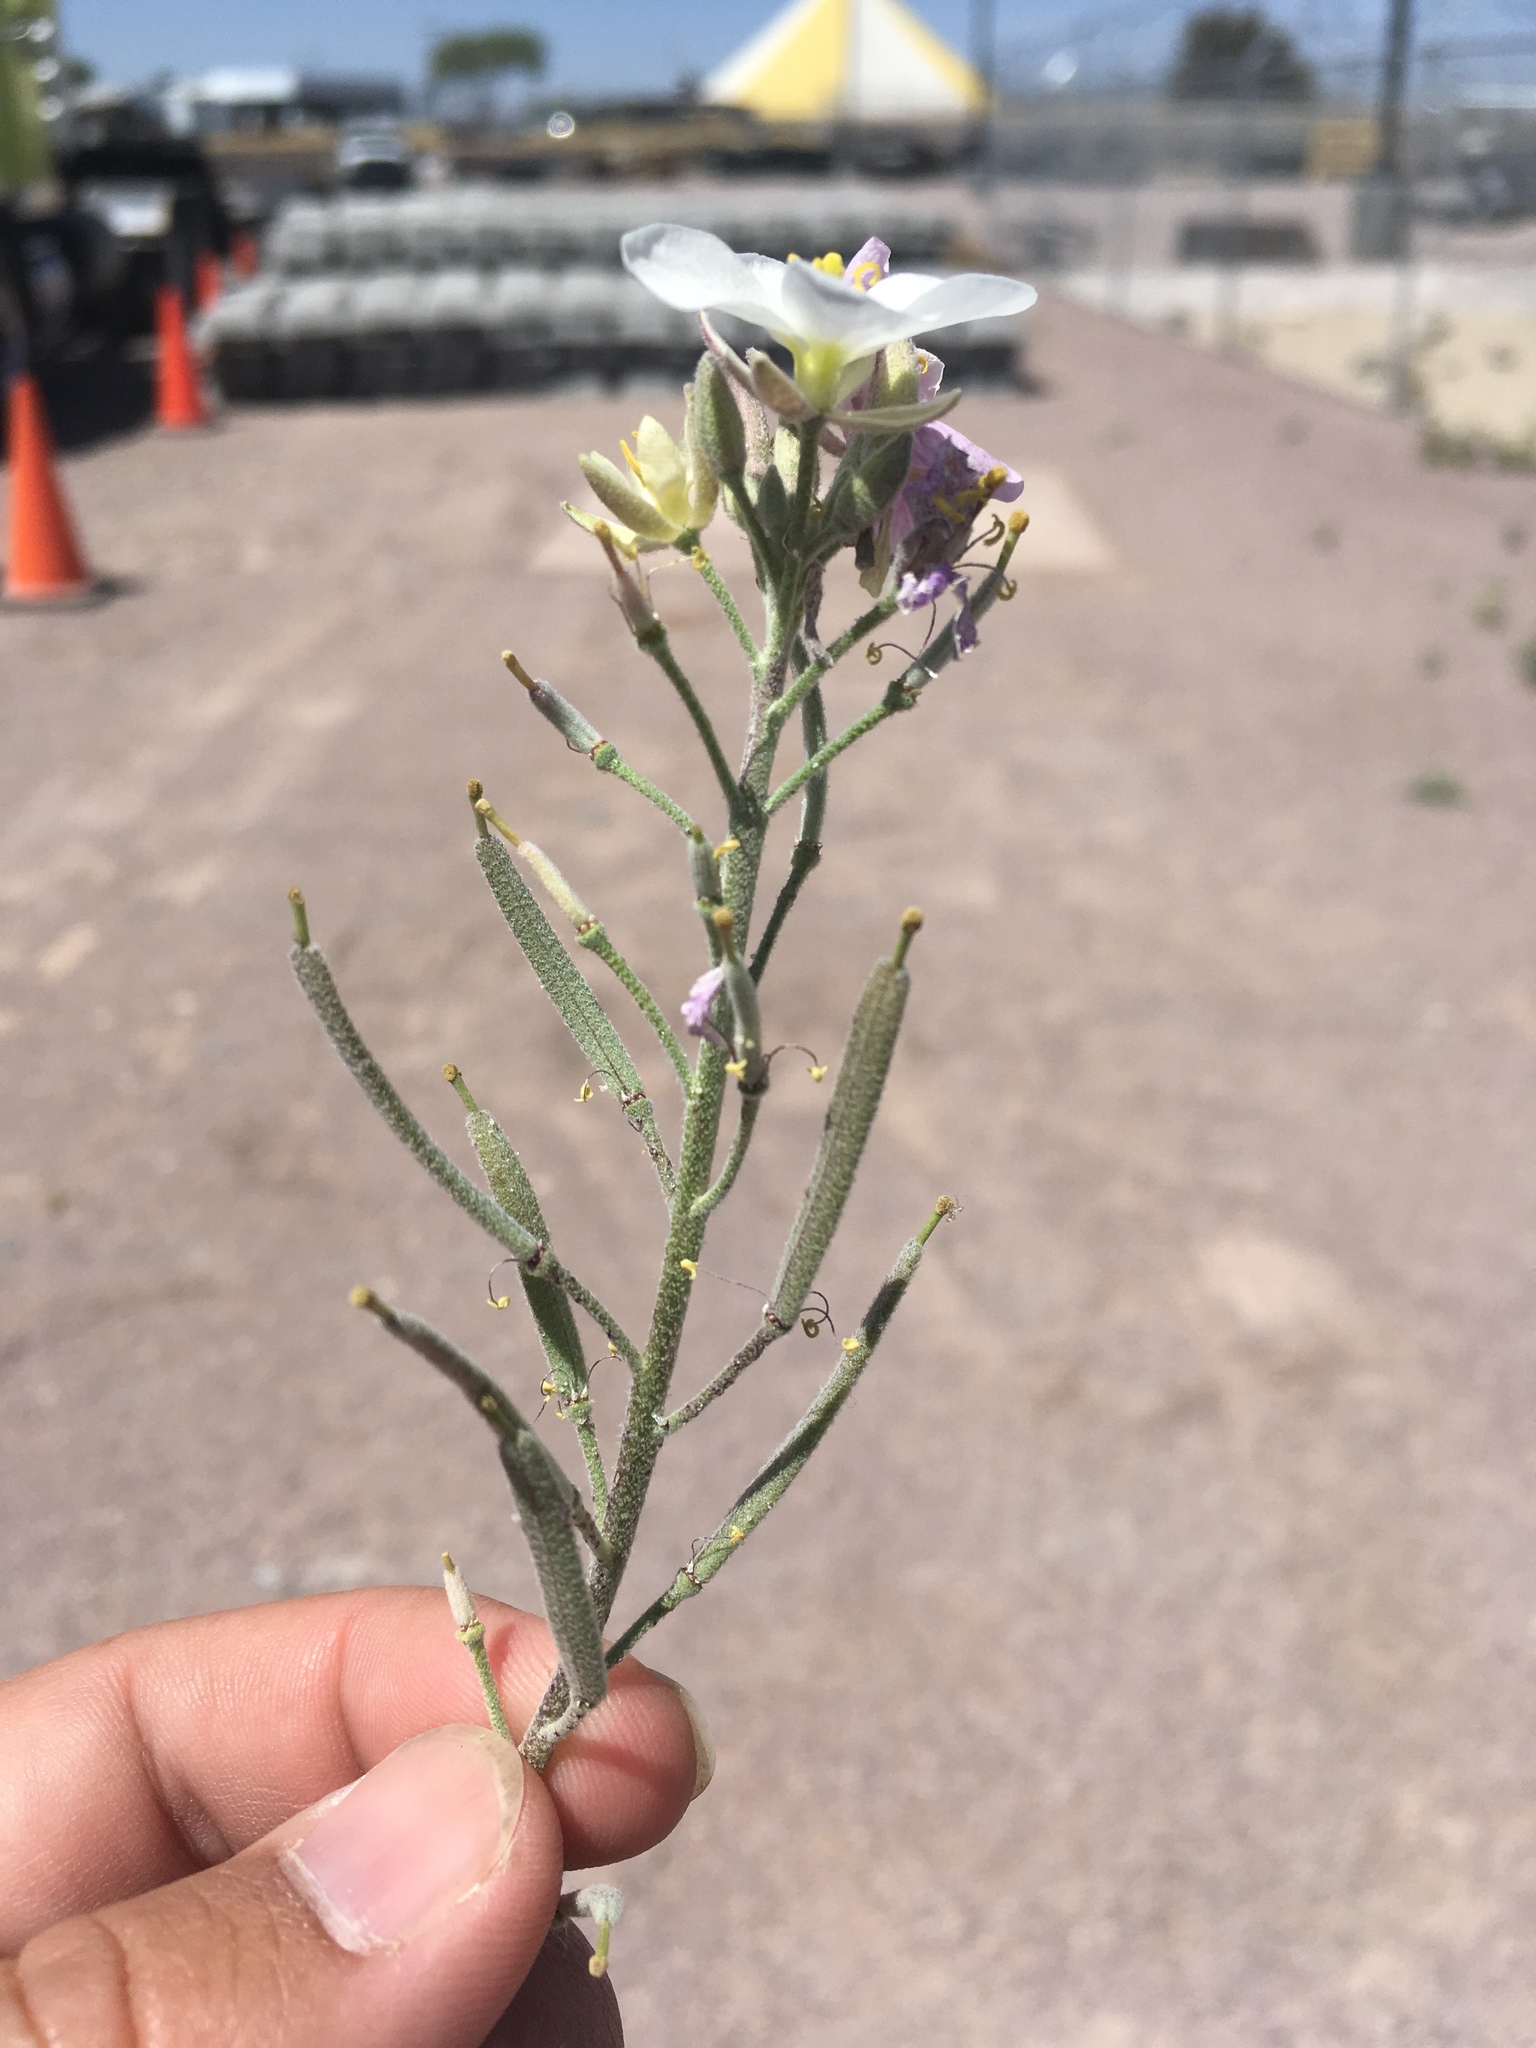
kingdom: Plantae
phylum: Tracheophyta
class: Magnoliopsida
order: Brassicales
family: Brassicaceae
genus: Nerisyrenia
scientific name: Nerisyrenia camporum
